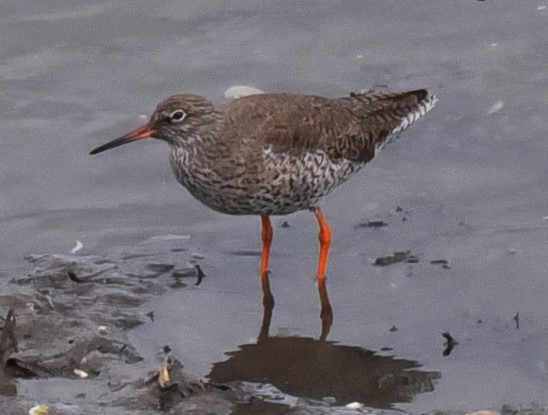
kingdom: Animalia
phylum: Chordata
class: Aves
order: Charadriiformes
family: Scolopacidae
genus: Tringa
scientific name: Tringa totanus
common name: Common redshank
